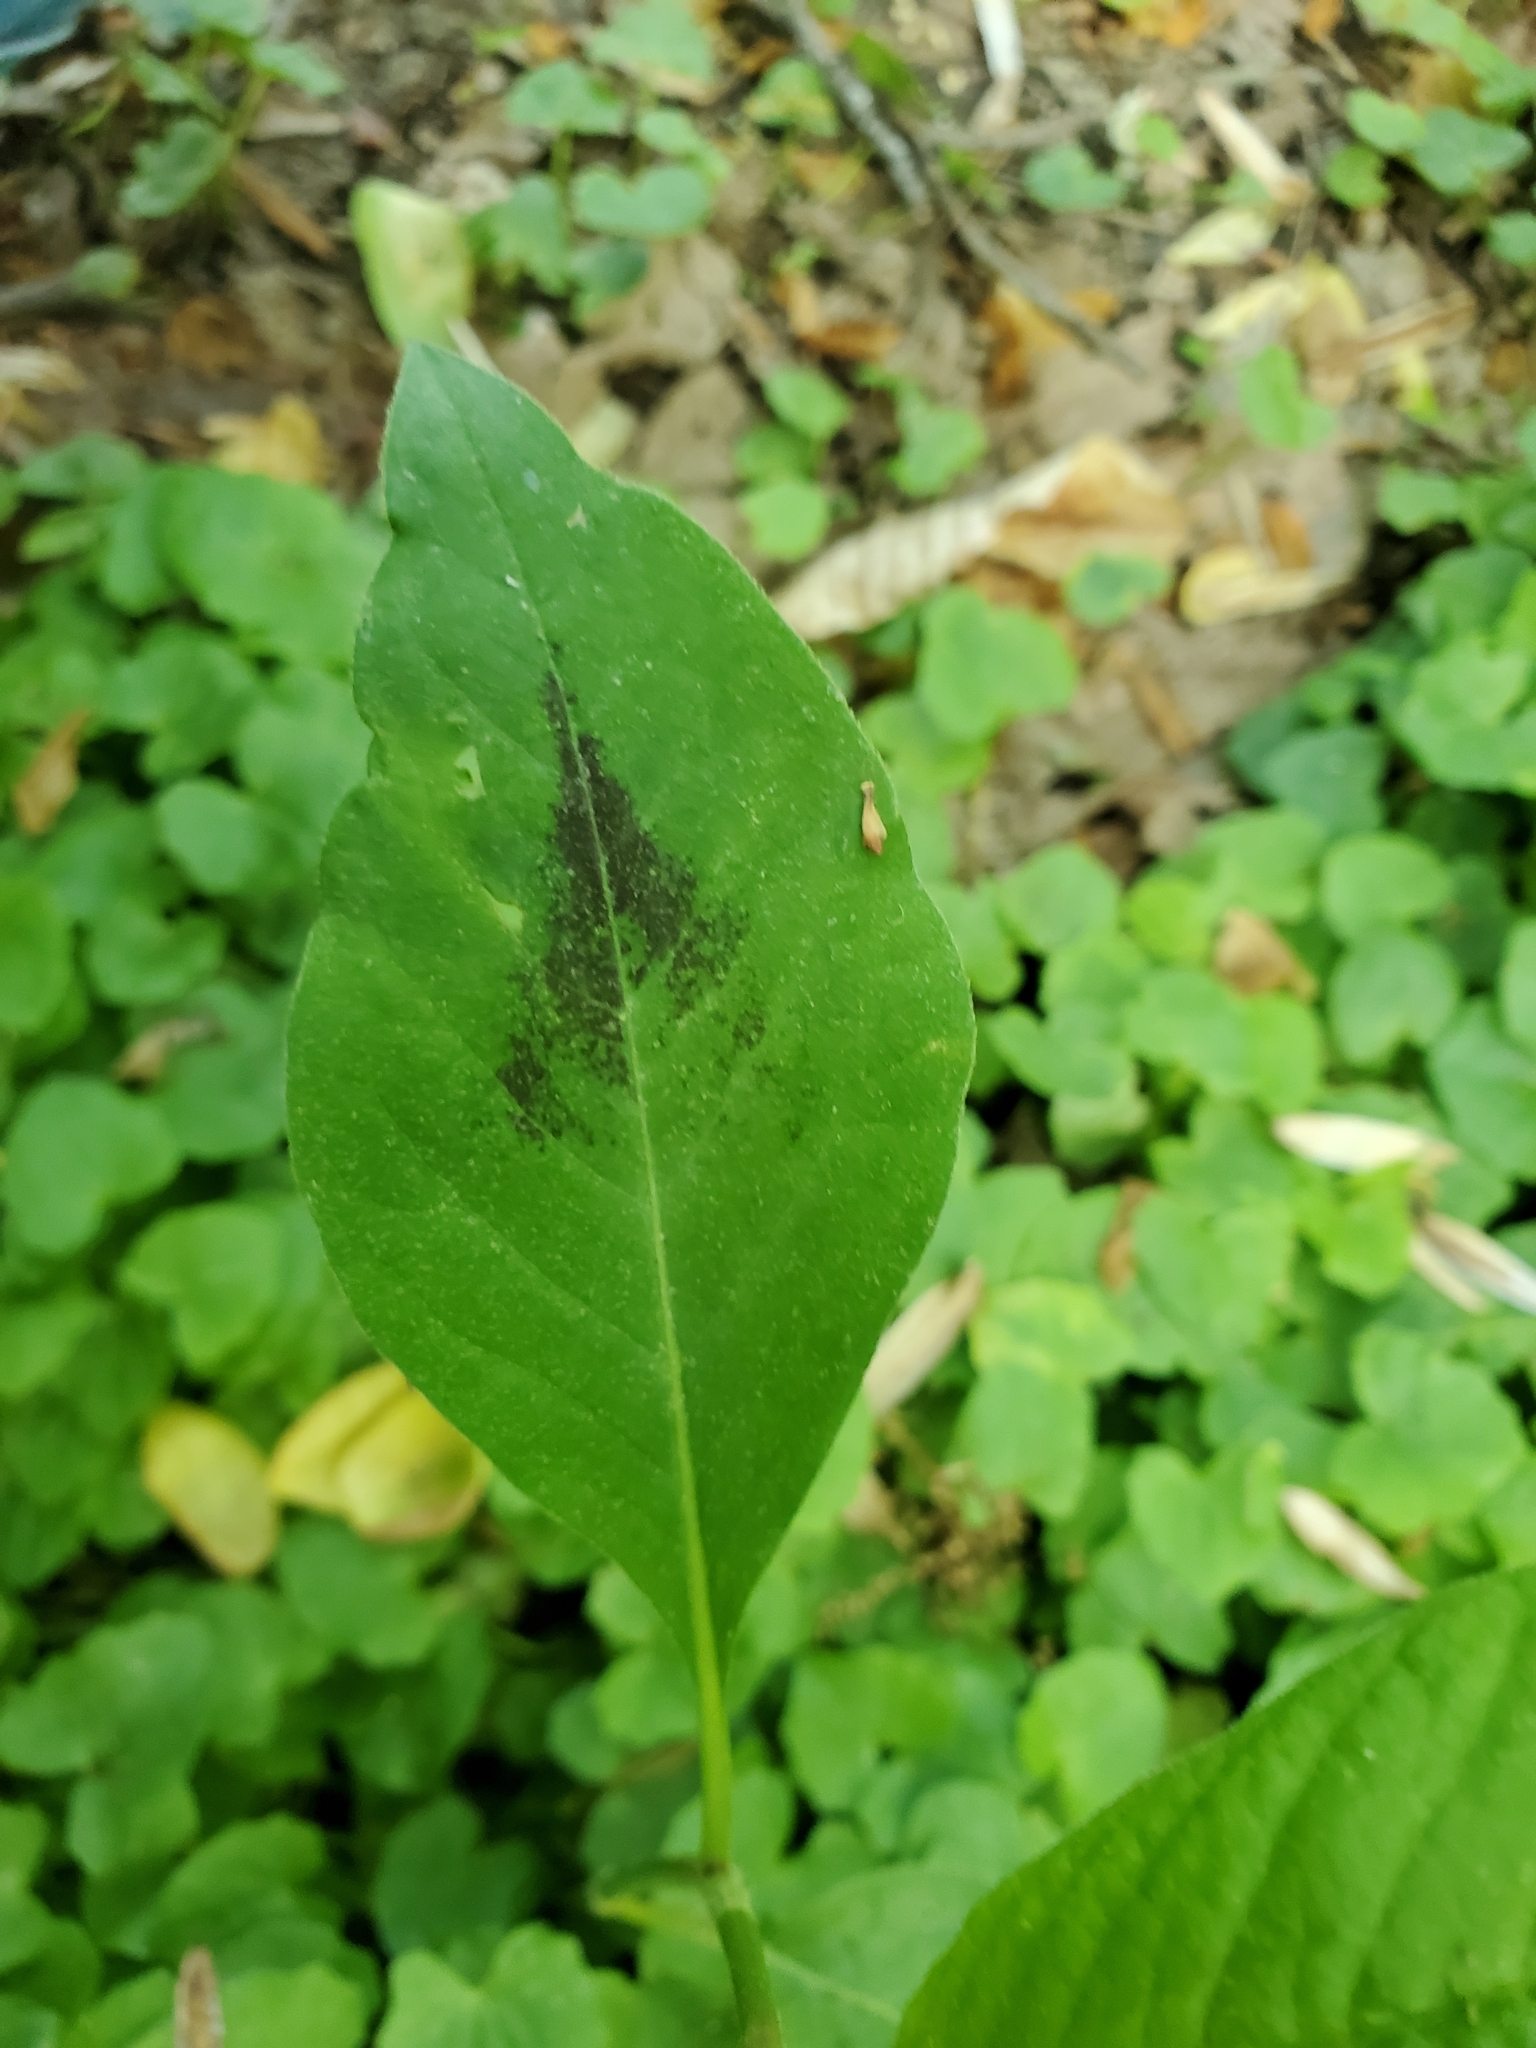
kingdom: Plantae
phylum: Tracheophyta
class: Magnoliopsida
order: Caryophyllales
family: Polygonaceae
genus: Persicaria
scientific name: Persicaria virginiana
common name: Jumpseed
